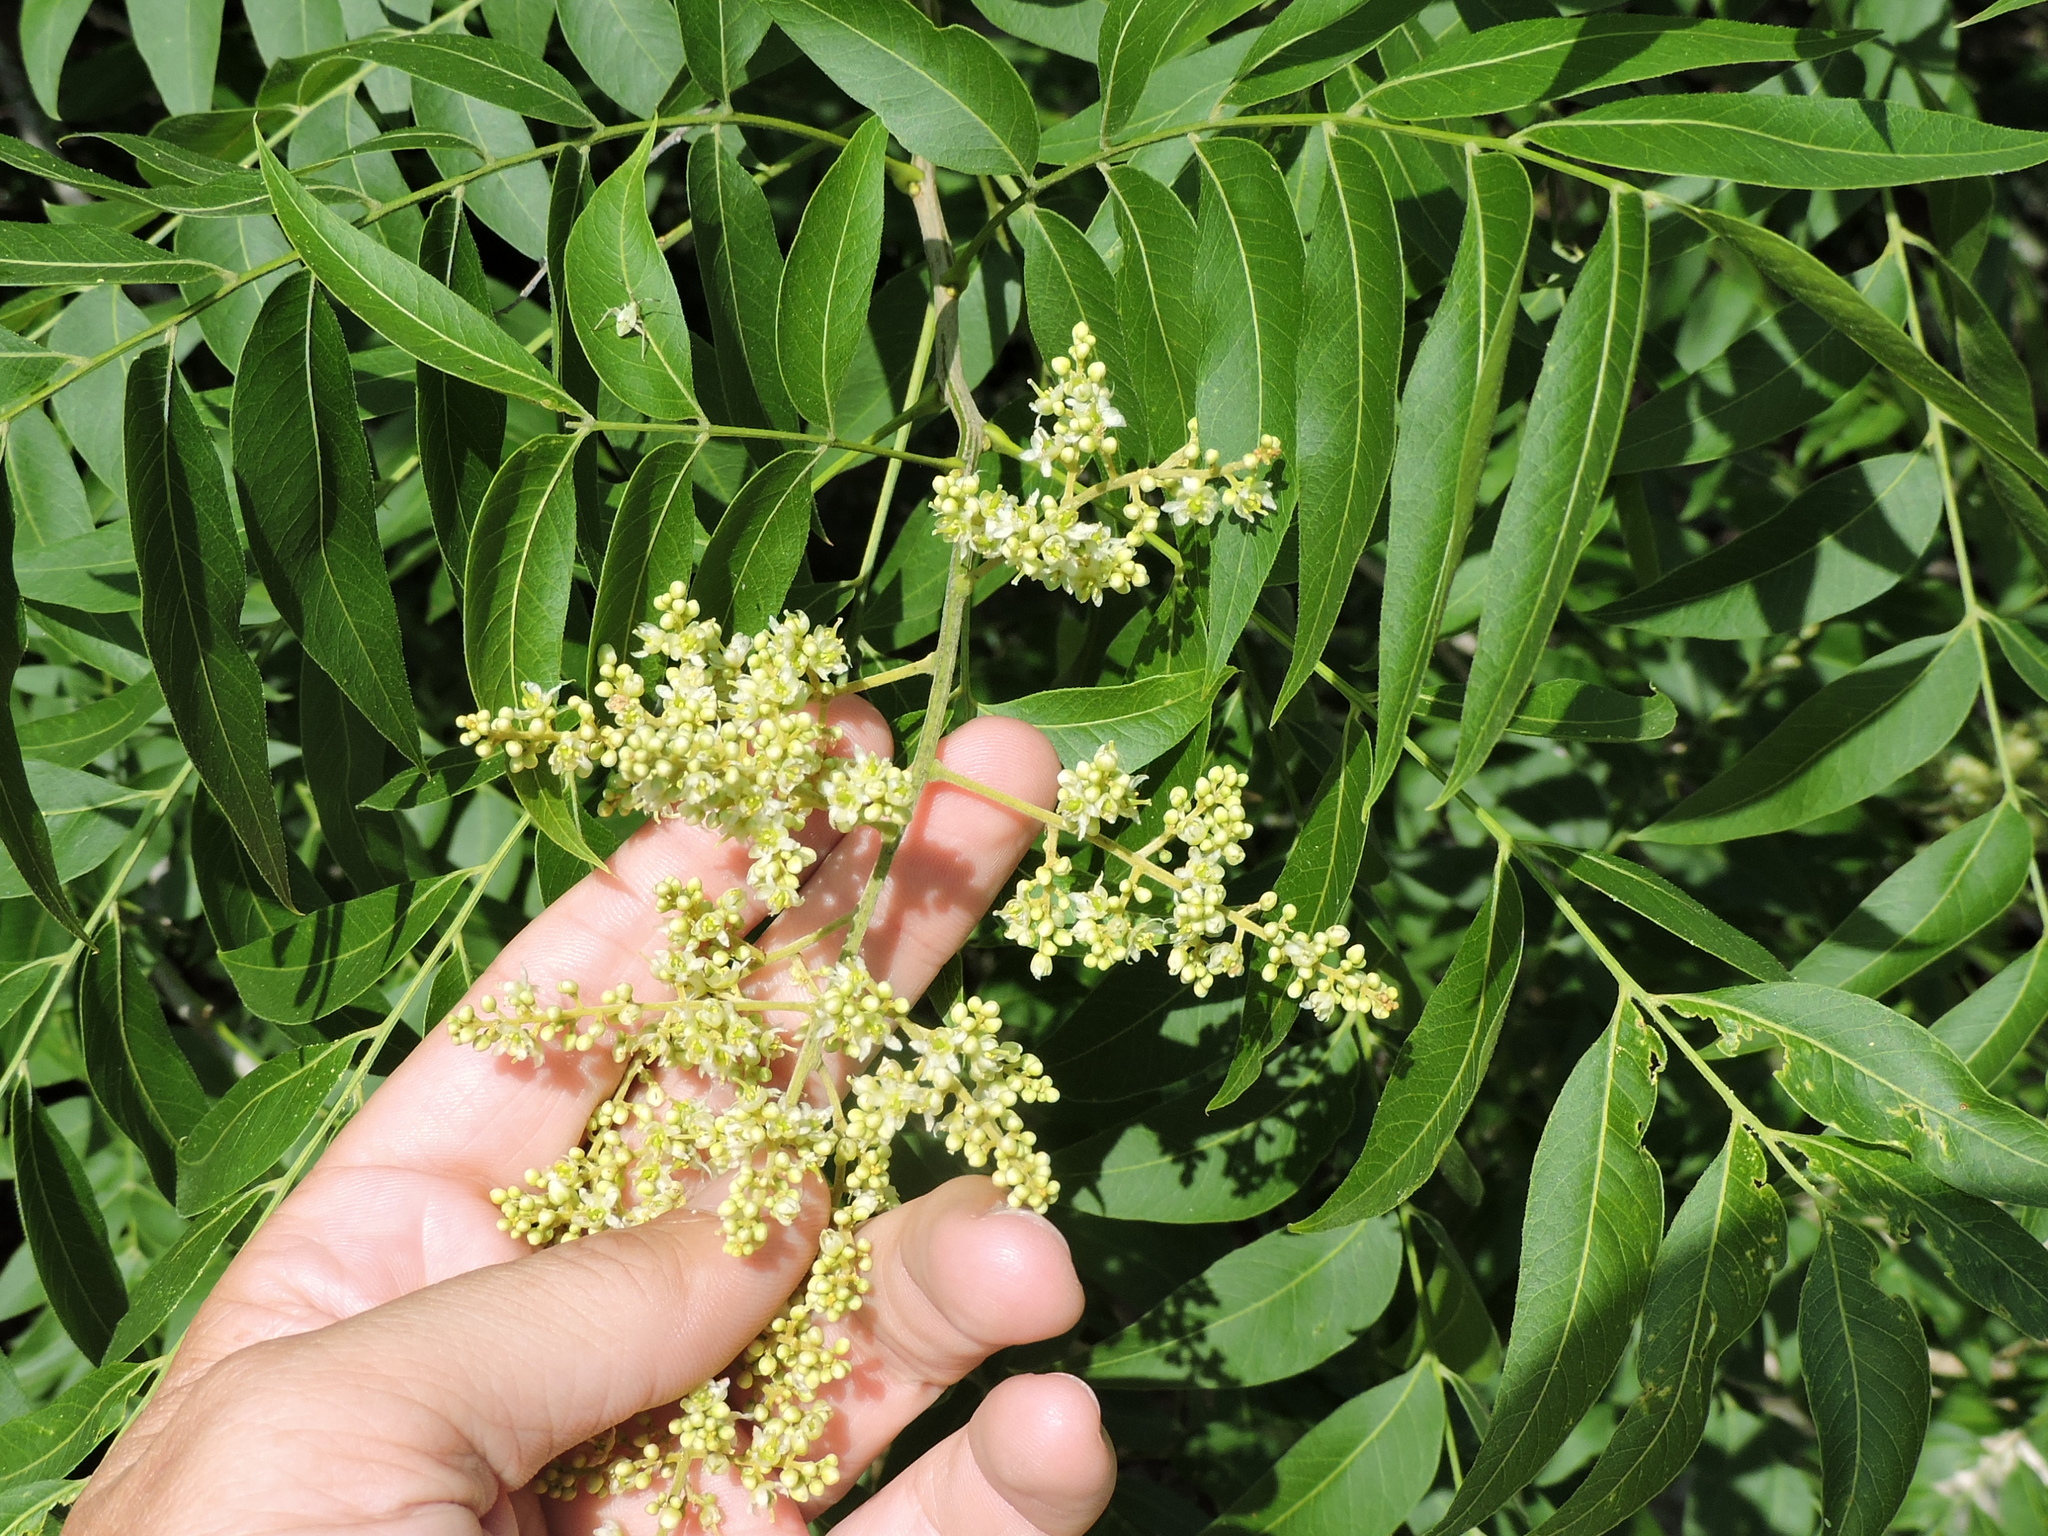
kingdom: Plantae
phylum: Tracheophyta
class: Magnoliopsida
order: Sapindales
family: Sapindaceae
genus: Sapindus
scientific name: Sapindus drummondii
